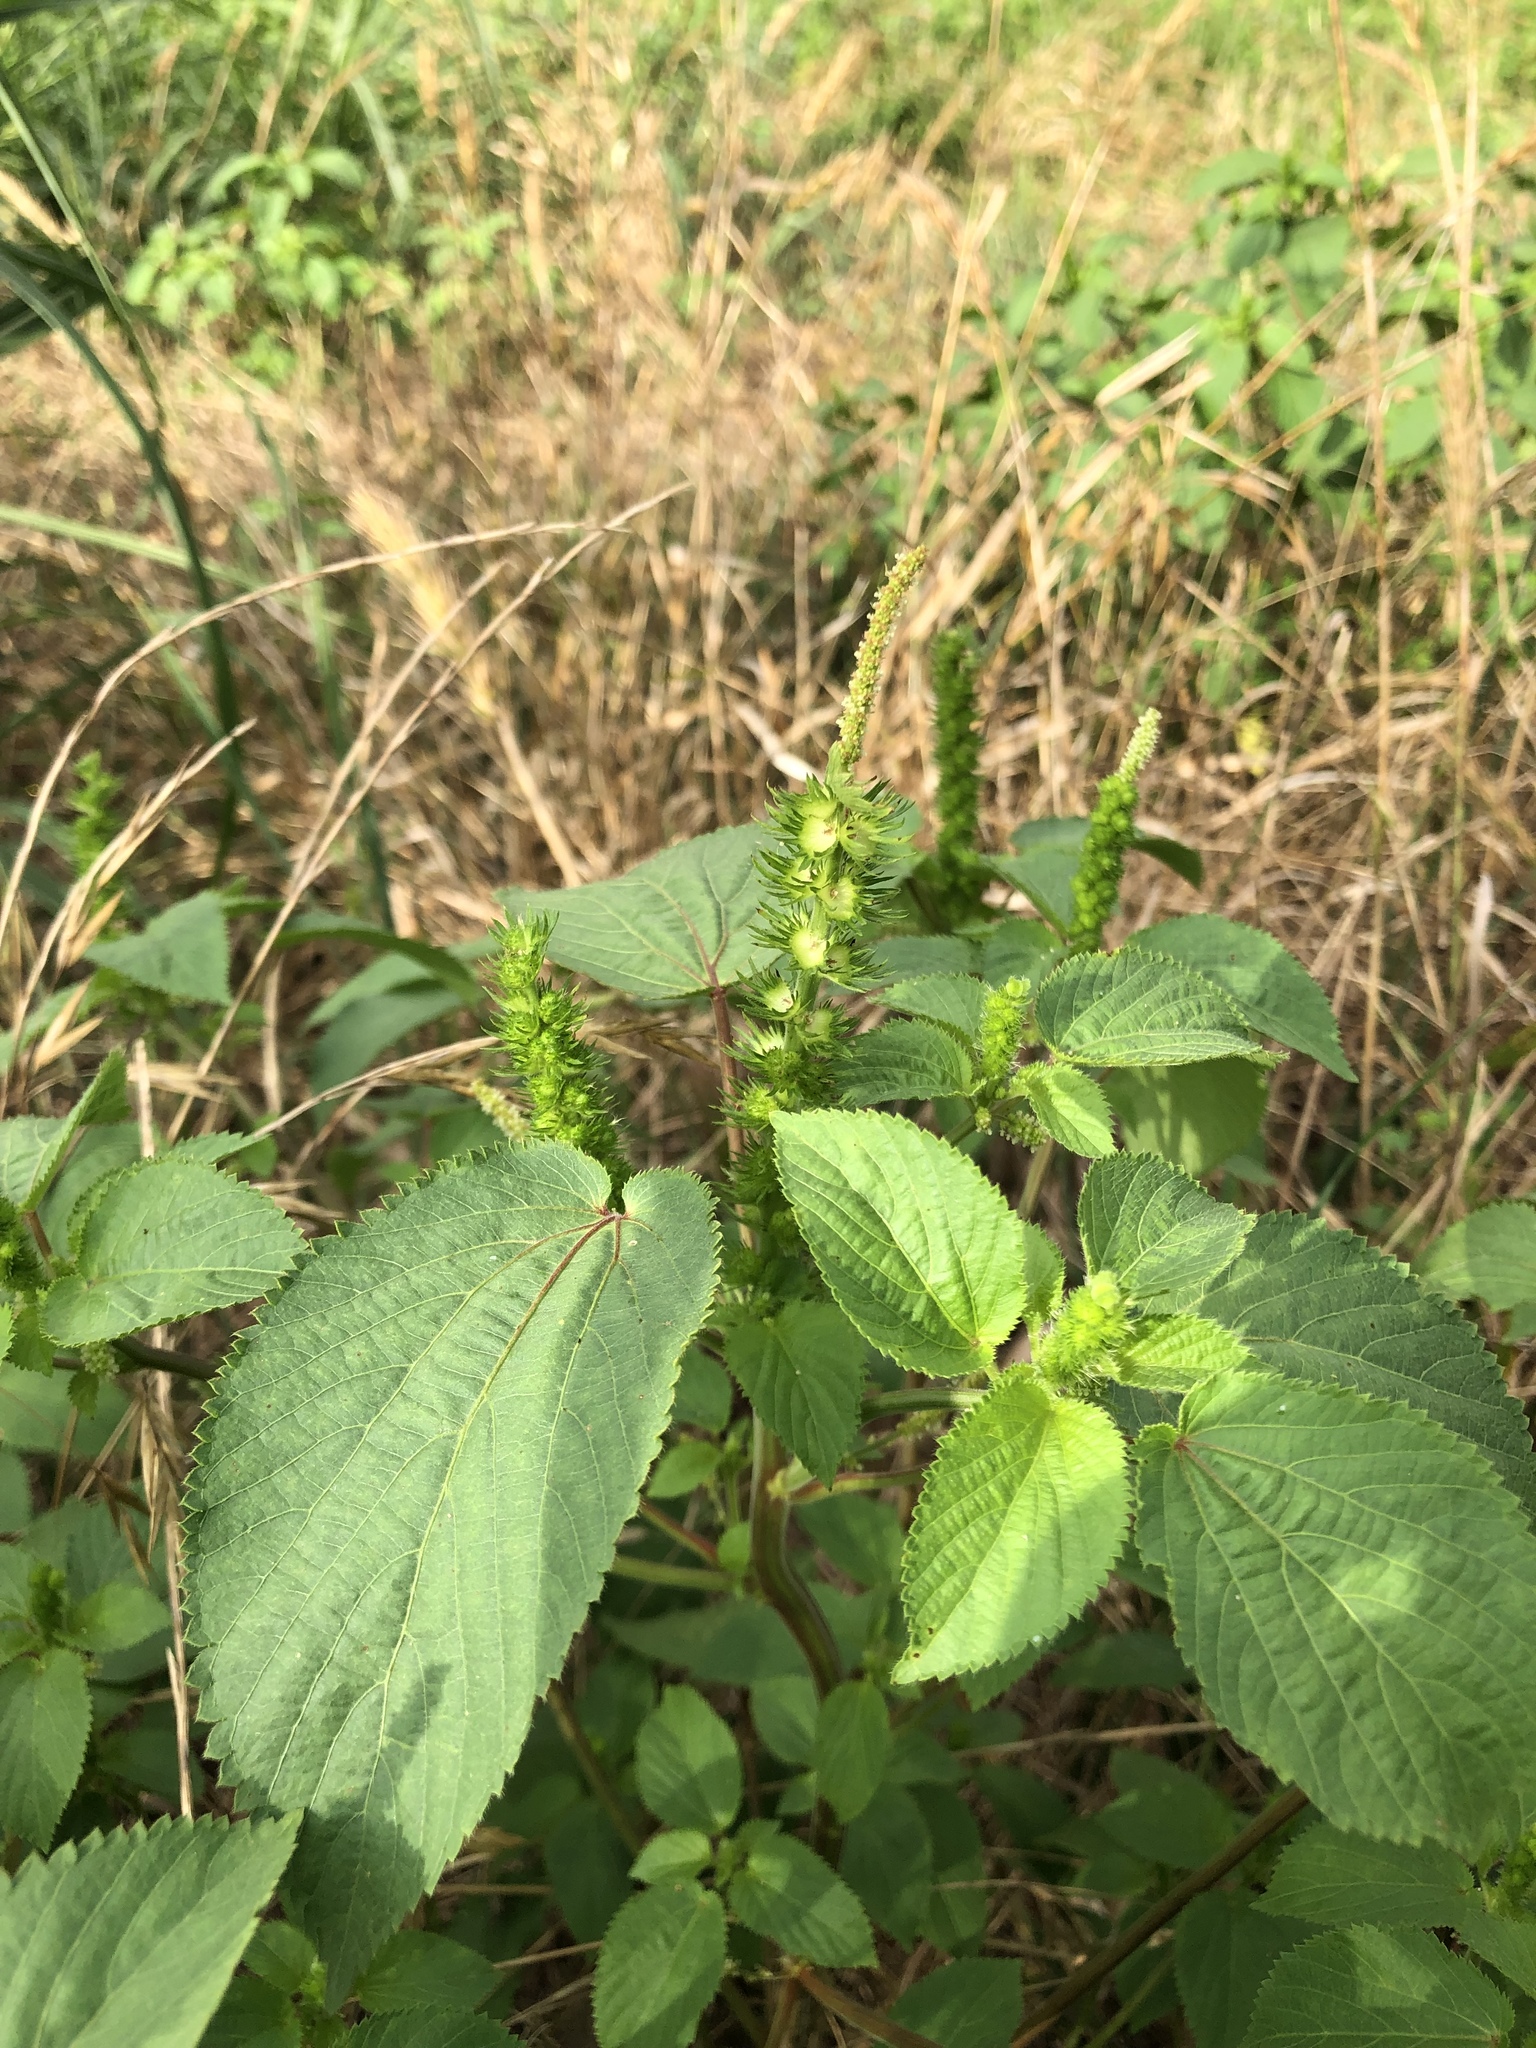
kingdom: Plantae
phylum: Tracheophyta
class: Magnoliopsida
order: Malpighiales
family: Euphorbiaceae
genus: Acalypha
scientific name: Acalypha ostryifolia
